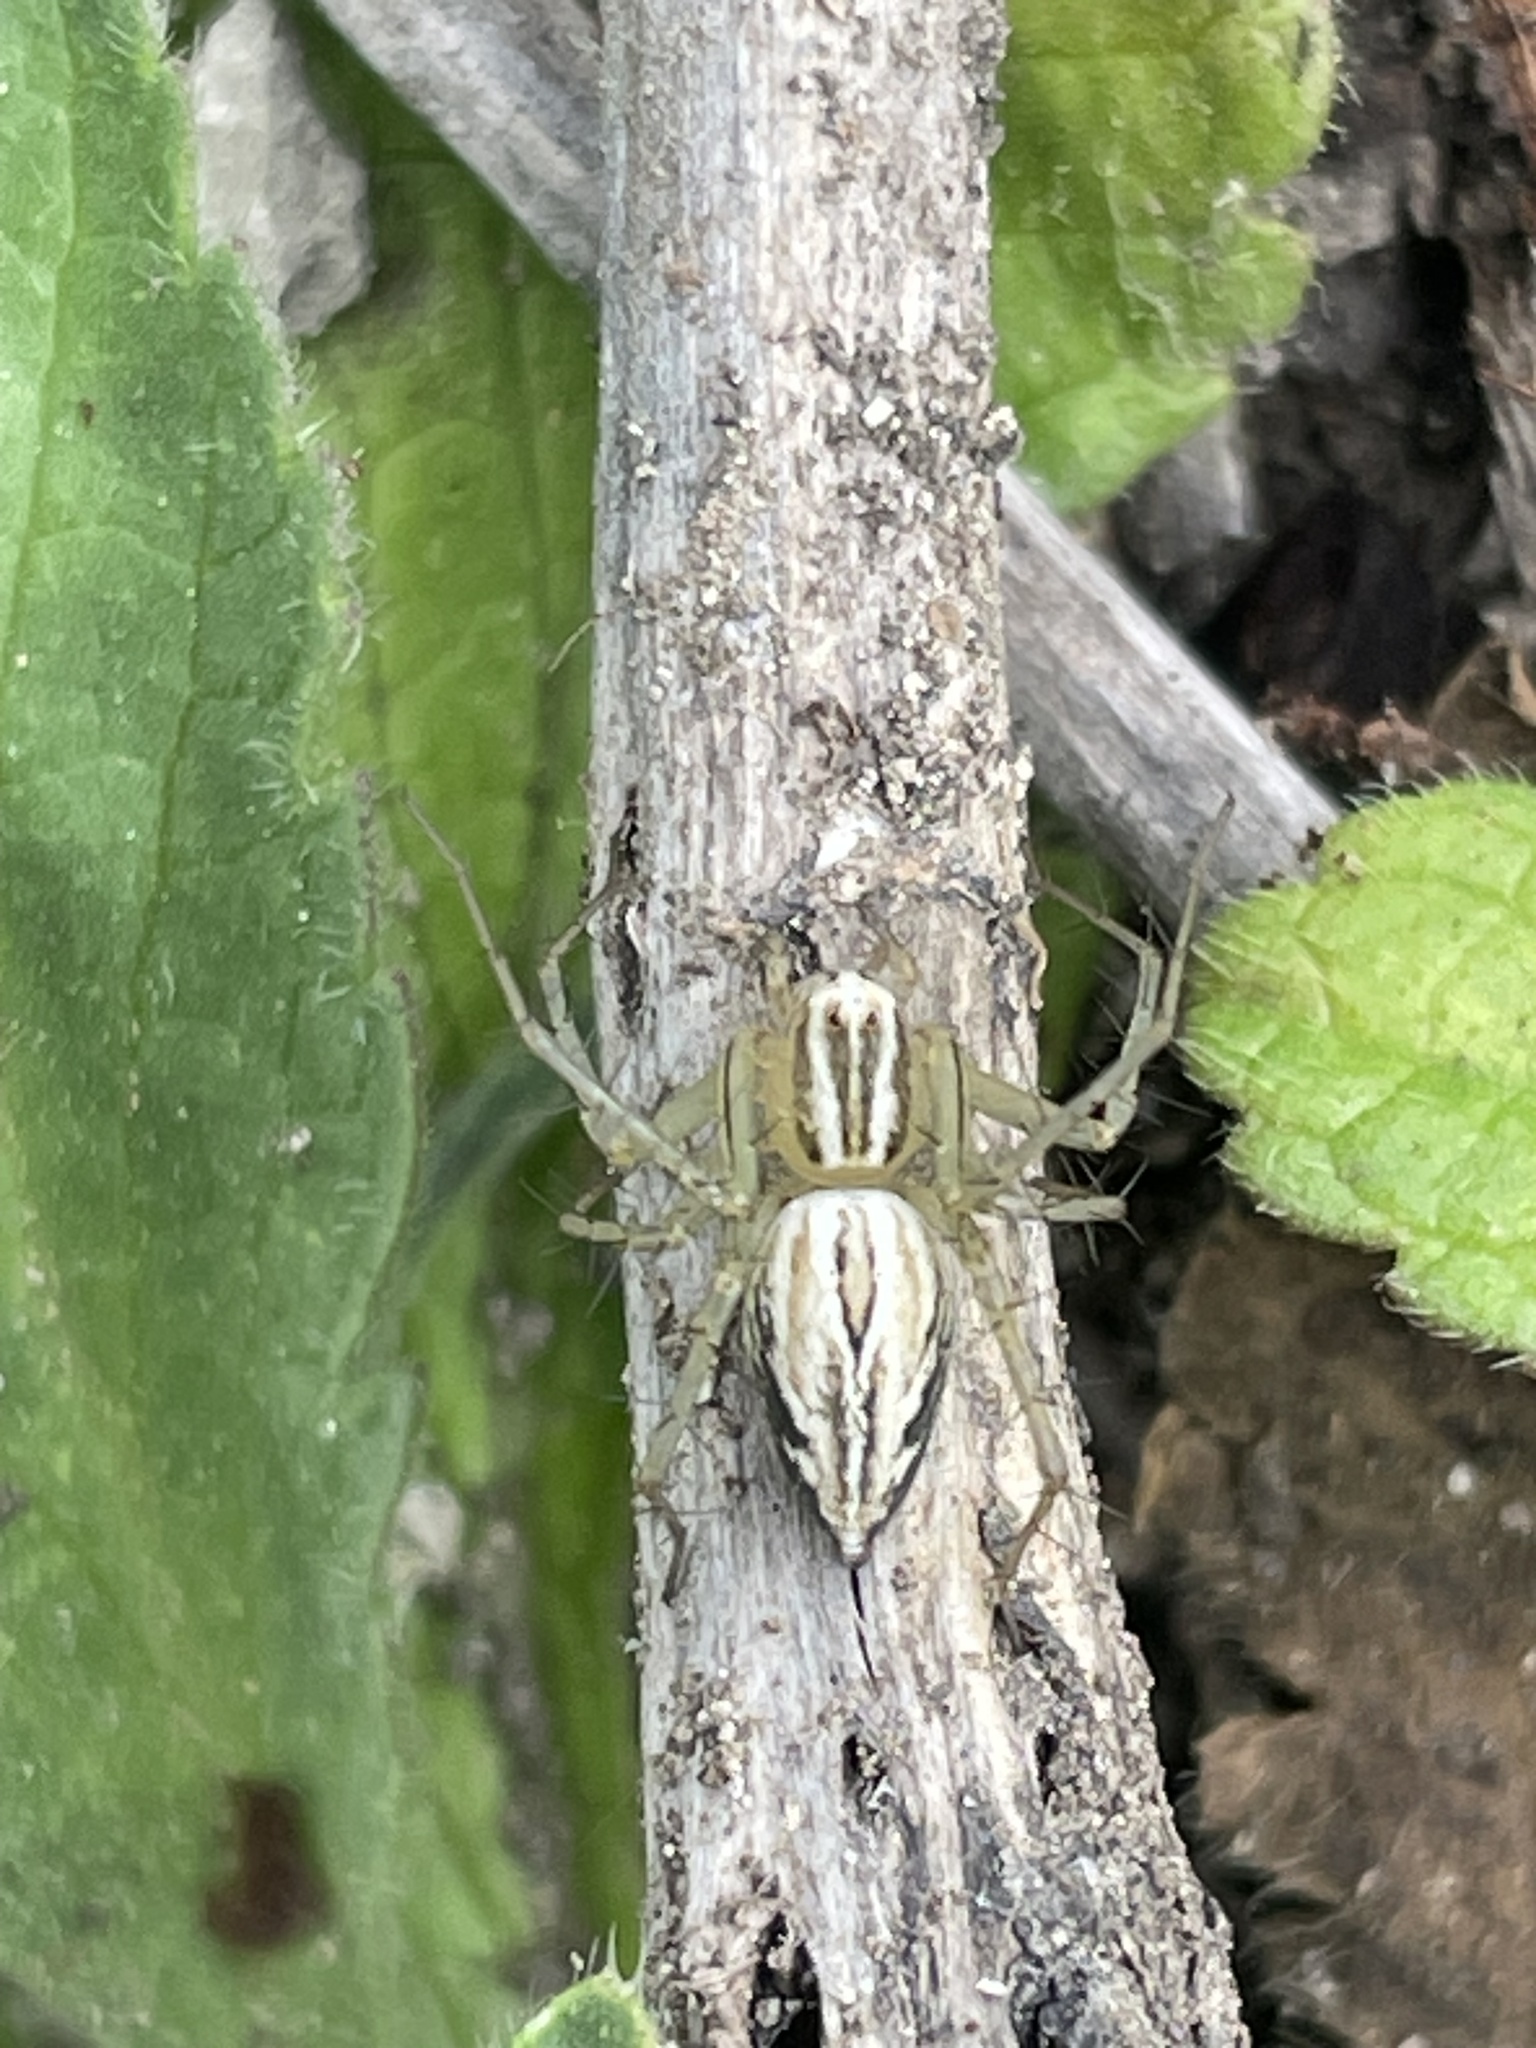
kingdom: Animalia
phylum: Arthropoda
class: Arachnida
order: Araneae
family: Oxyopidae
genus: Oxyopes
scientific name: Oxyopes salticus
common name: Lynx spiders
